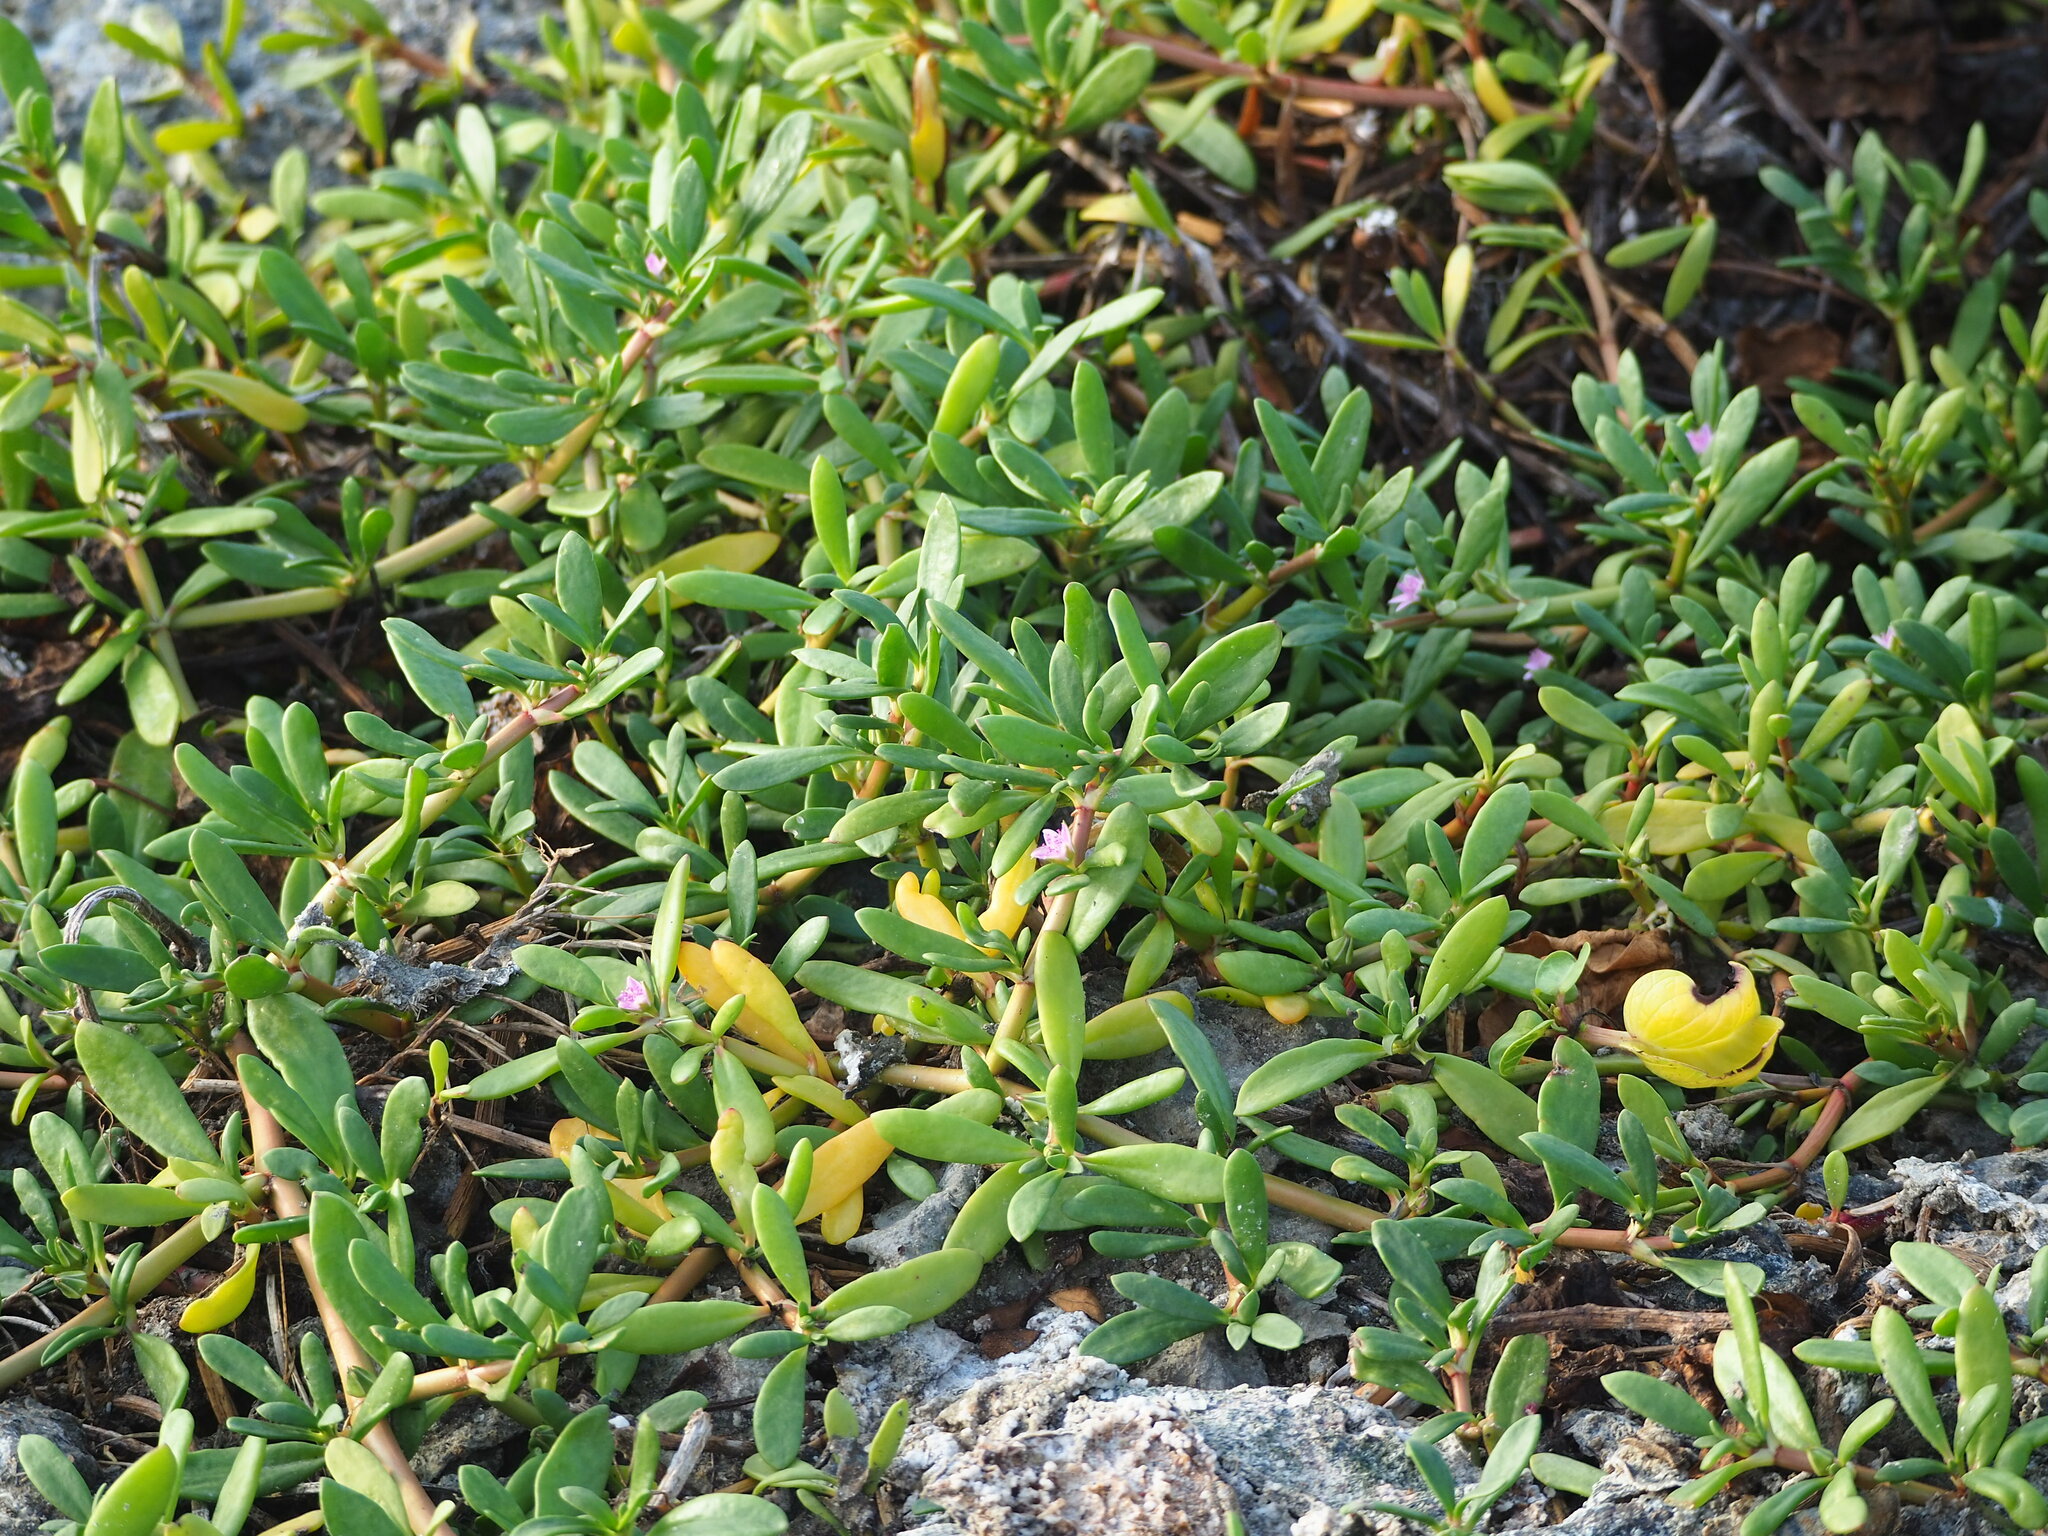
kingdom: Plantae
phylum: Tracheophyta
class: Magnoliopsida
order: Caryophyllales
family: Aizoaceae
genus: Sesuvium
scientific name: Sesuvium portulacastrum
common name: Sea-purslane
